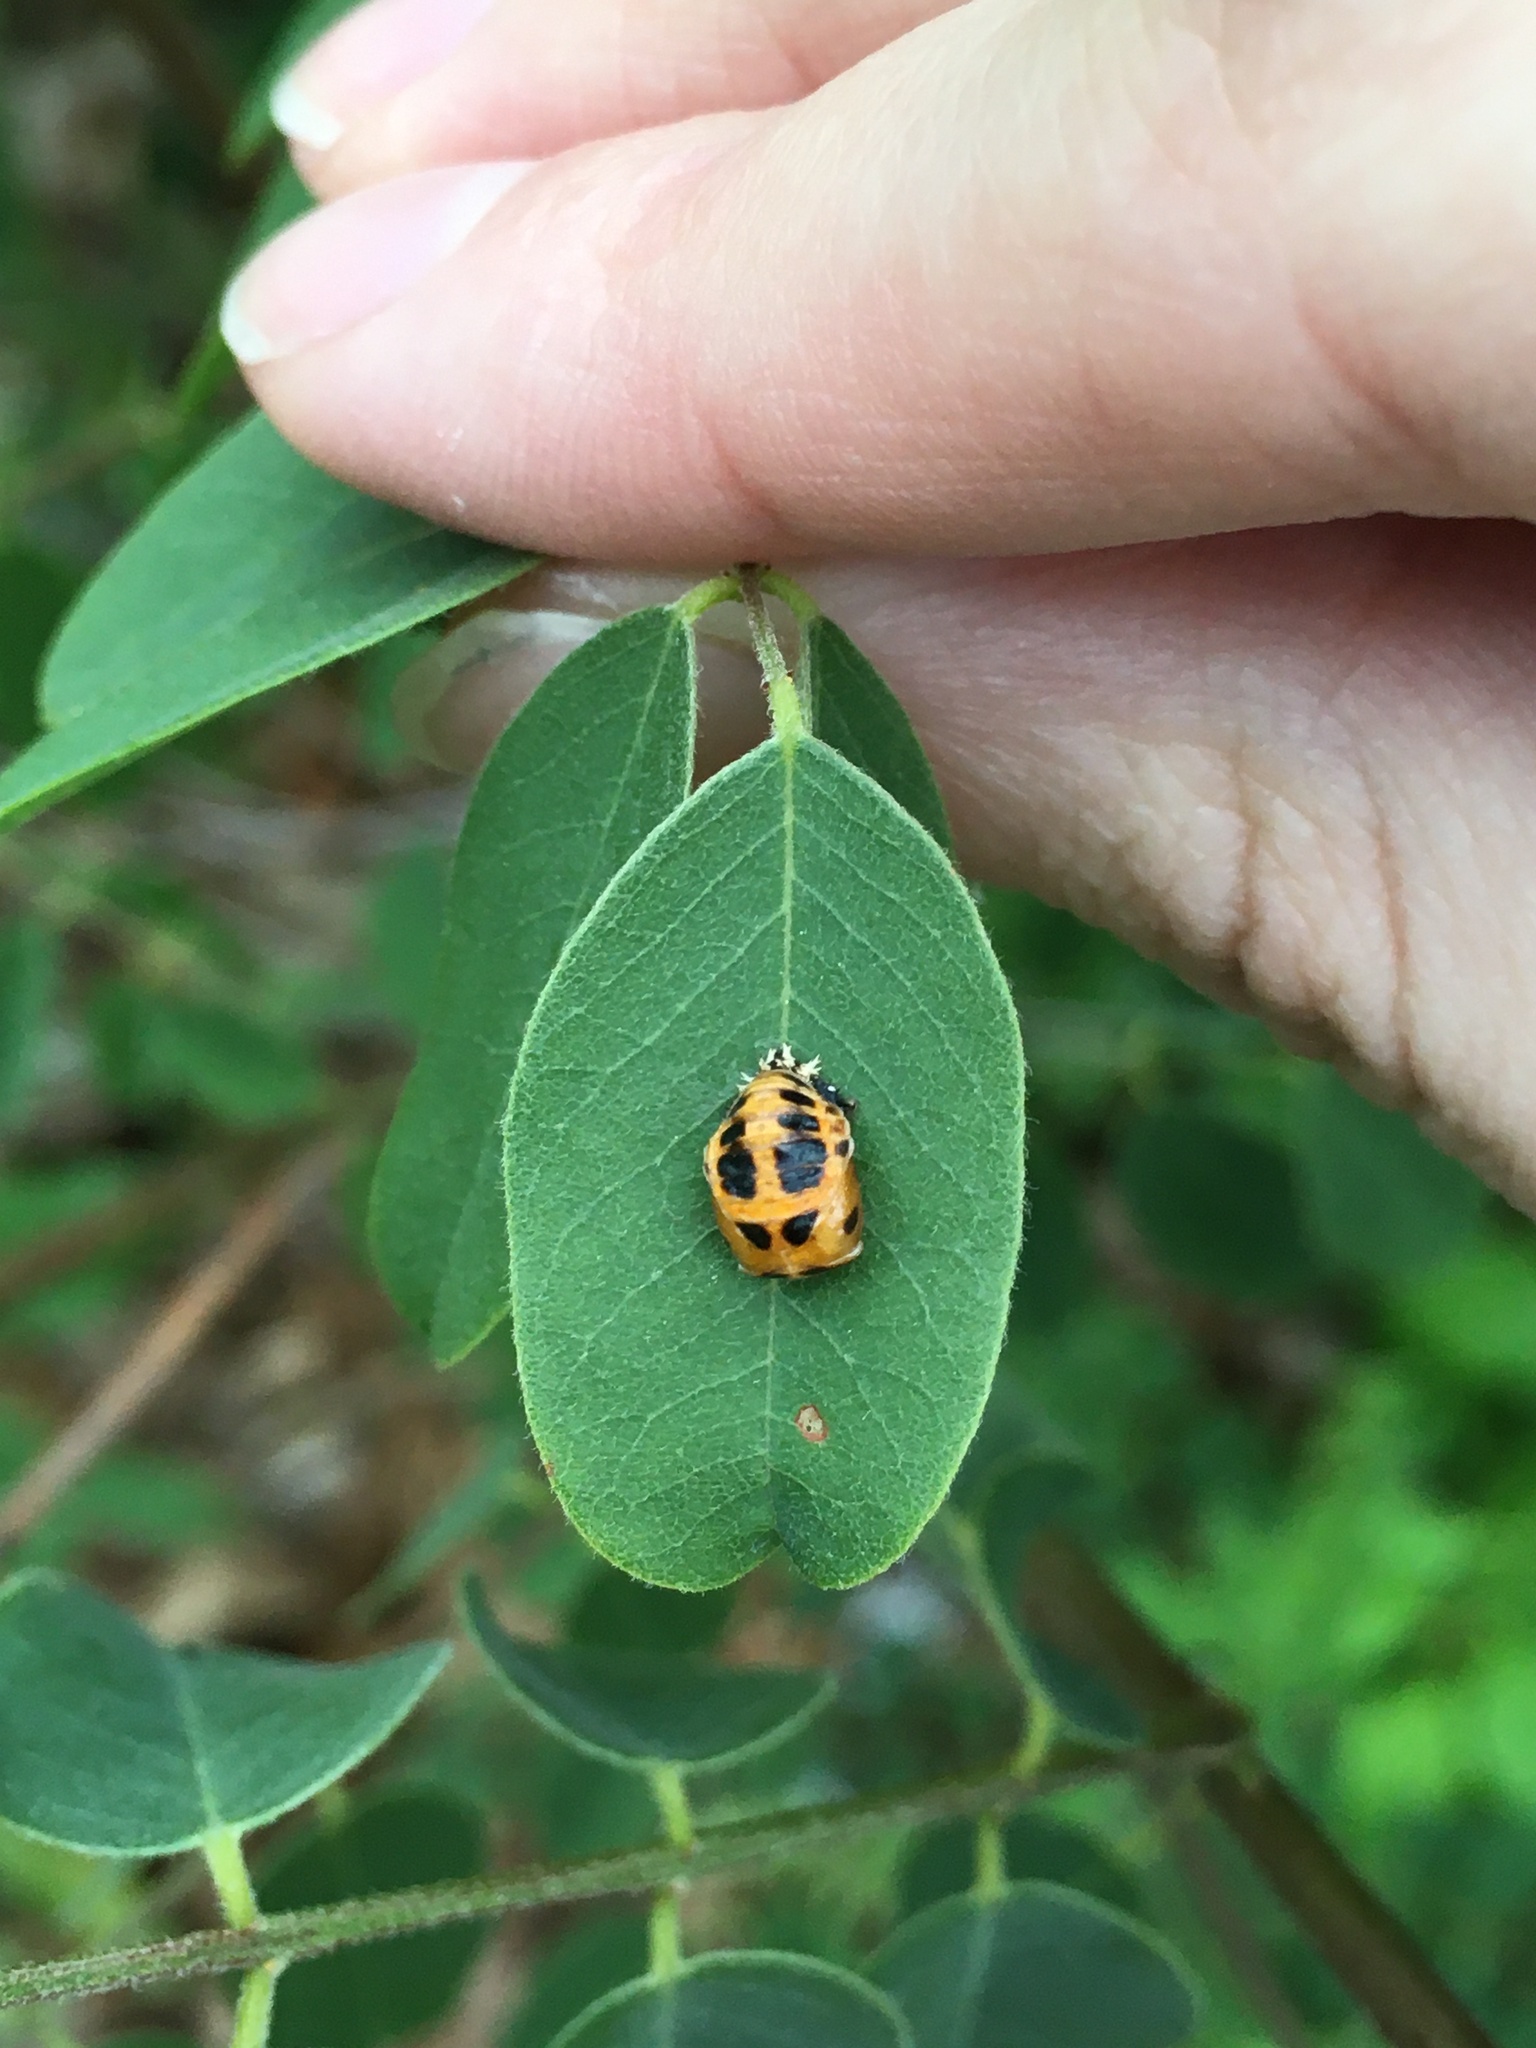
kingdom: Animalia
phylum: Arthropoda
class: Insecta
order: Coleoptera
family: Coccinellidae
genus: Harmonia
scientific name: Harmonia axyridis
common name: Harlequin ladybird
